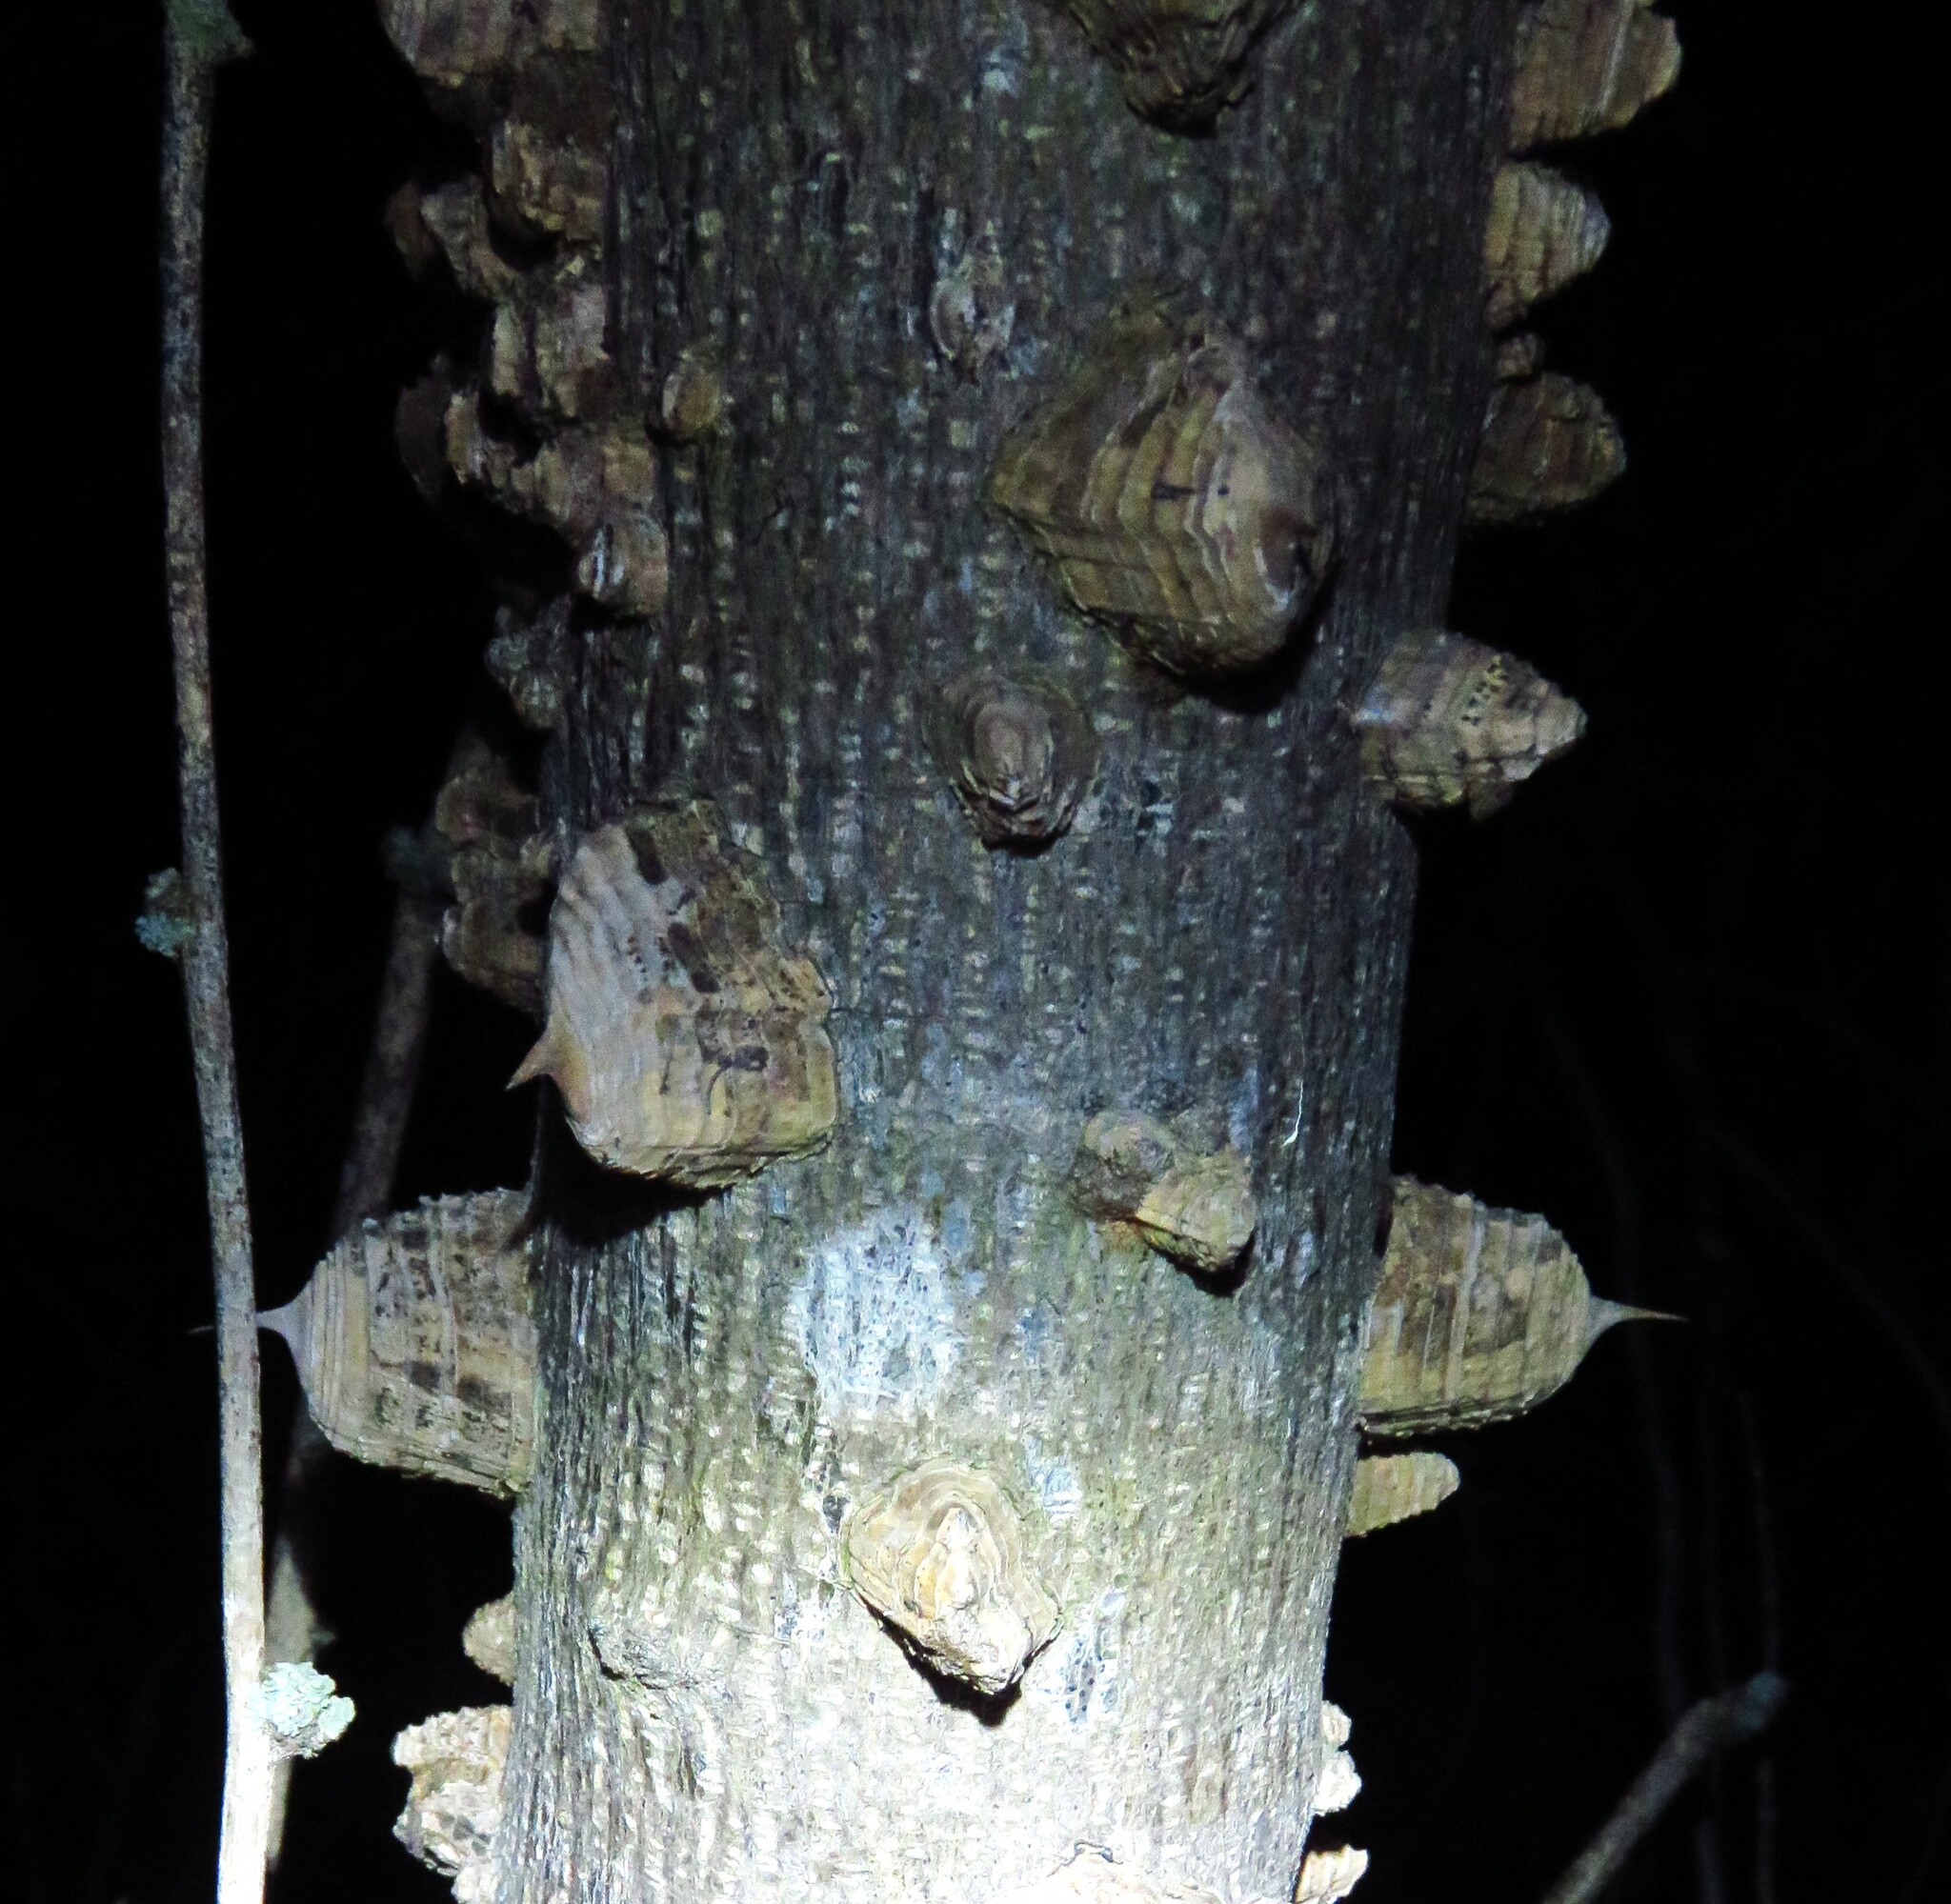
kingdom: Plantae
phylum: Tracheophyta
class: Magnoliopsida
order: Sapindales
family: Rutaceae
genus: Zanthoxylum
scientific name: Zanthoxylum clava-herculis
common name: Hercules'-club
